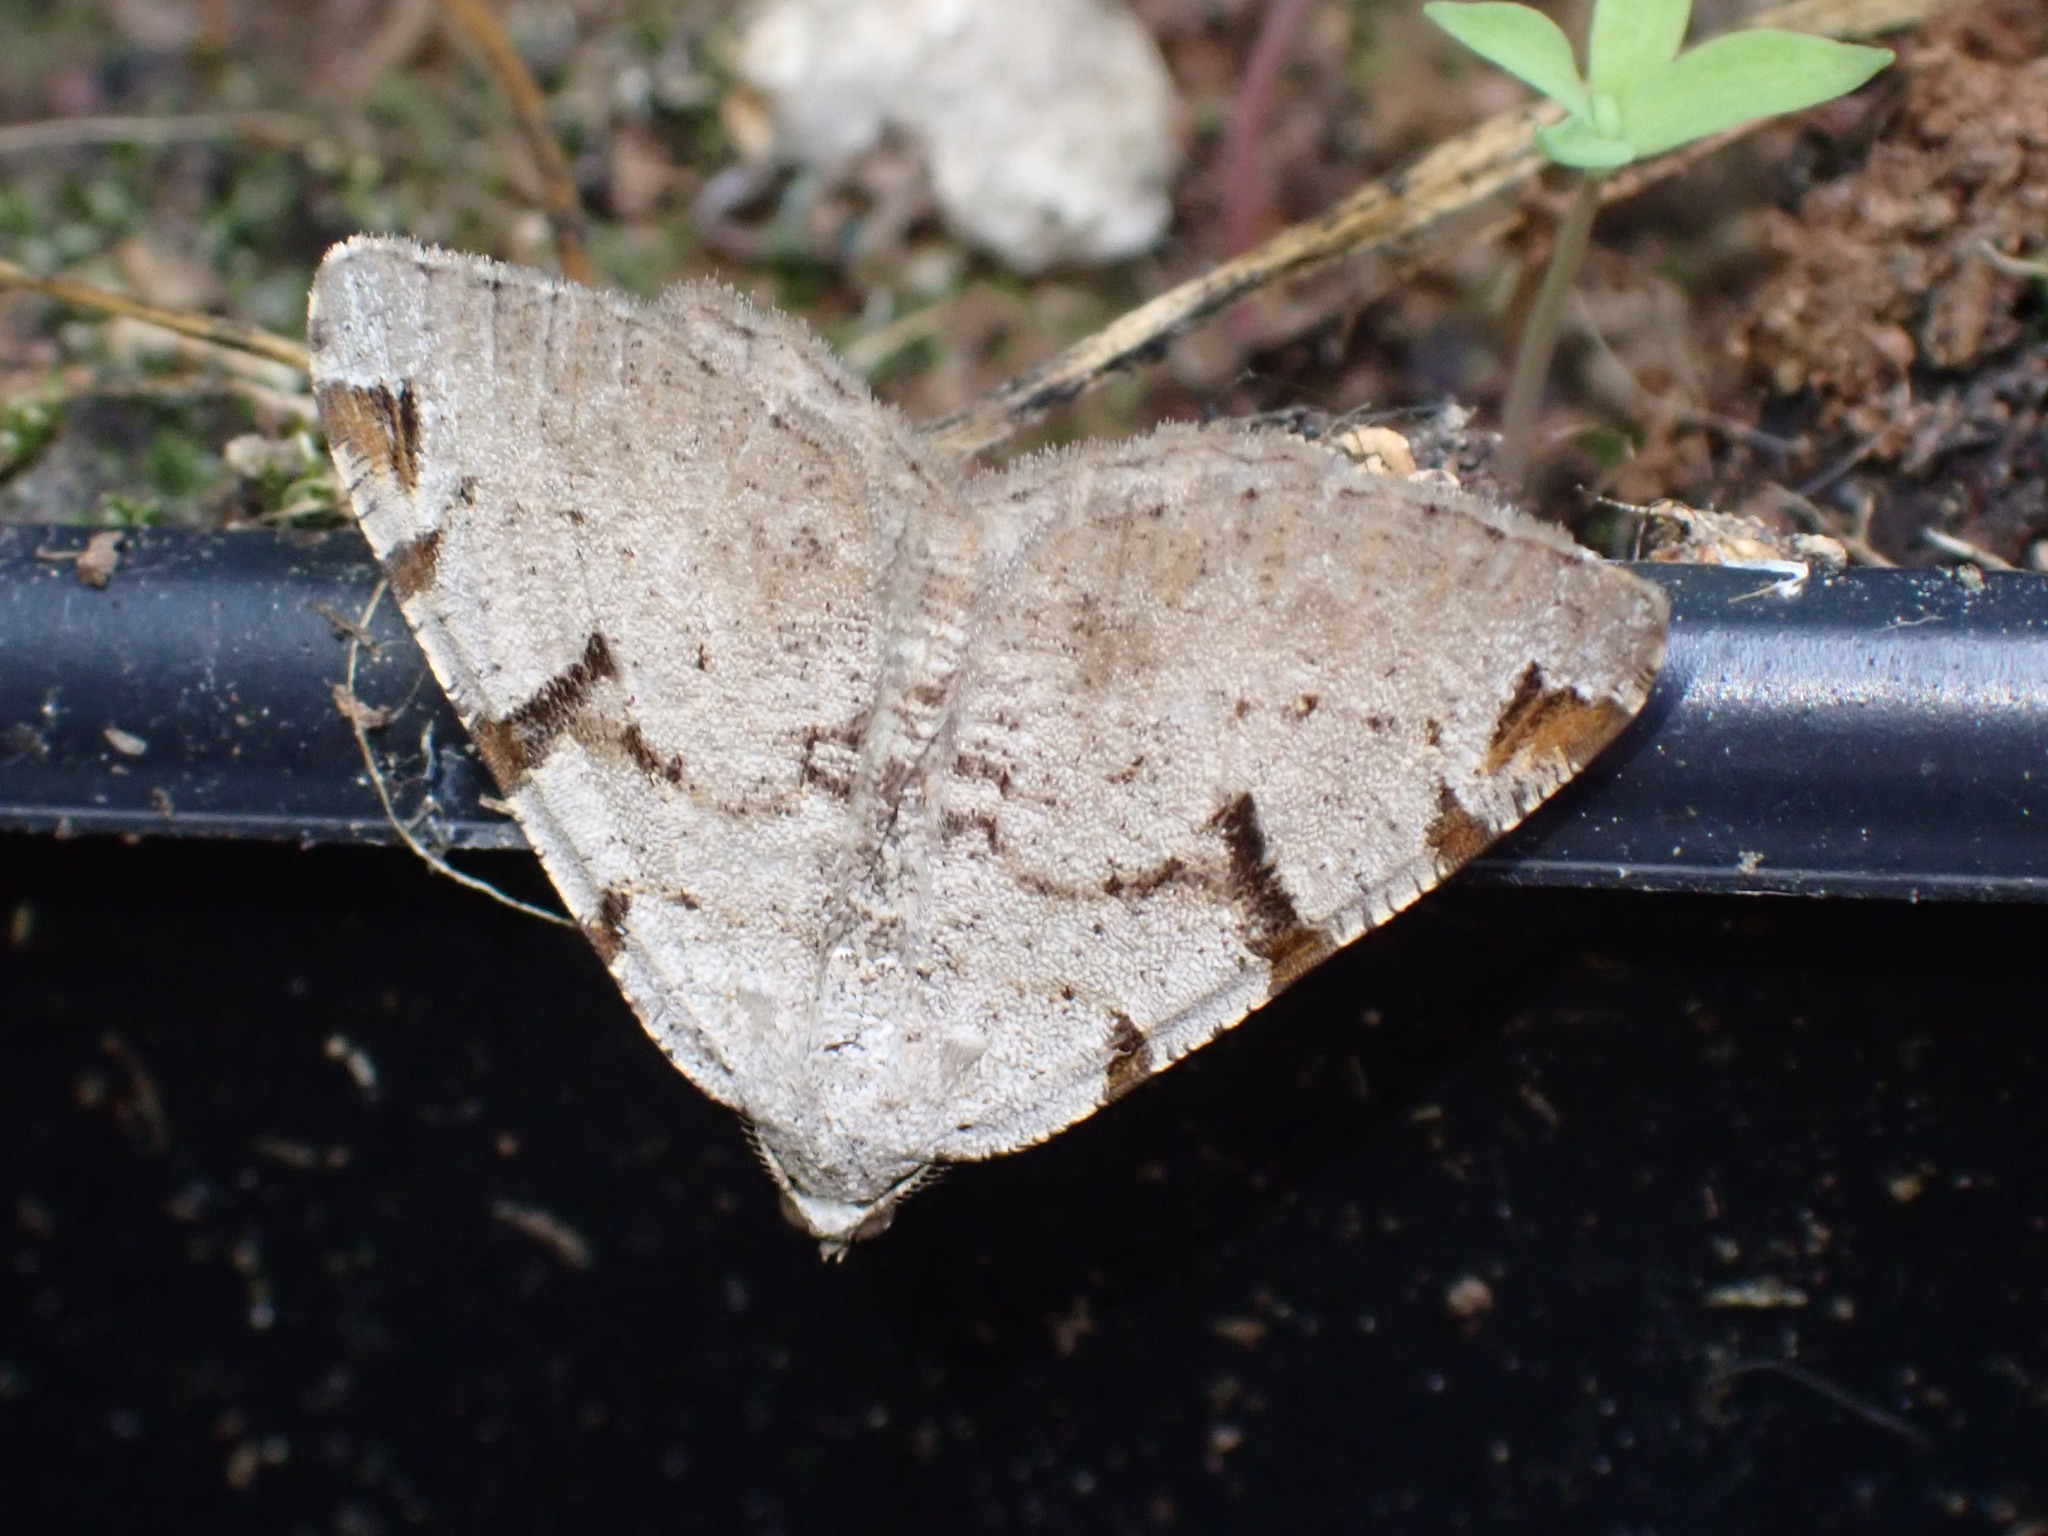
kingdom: Animalia
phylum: Arthropoda
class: Insecta
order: Lepidoptera
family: Geometridae
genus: Macaria
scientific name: Macaria wauaria
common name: V-moth
